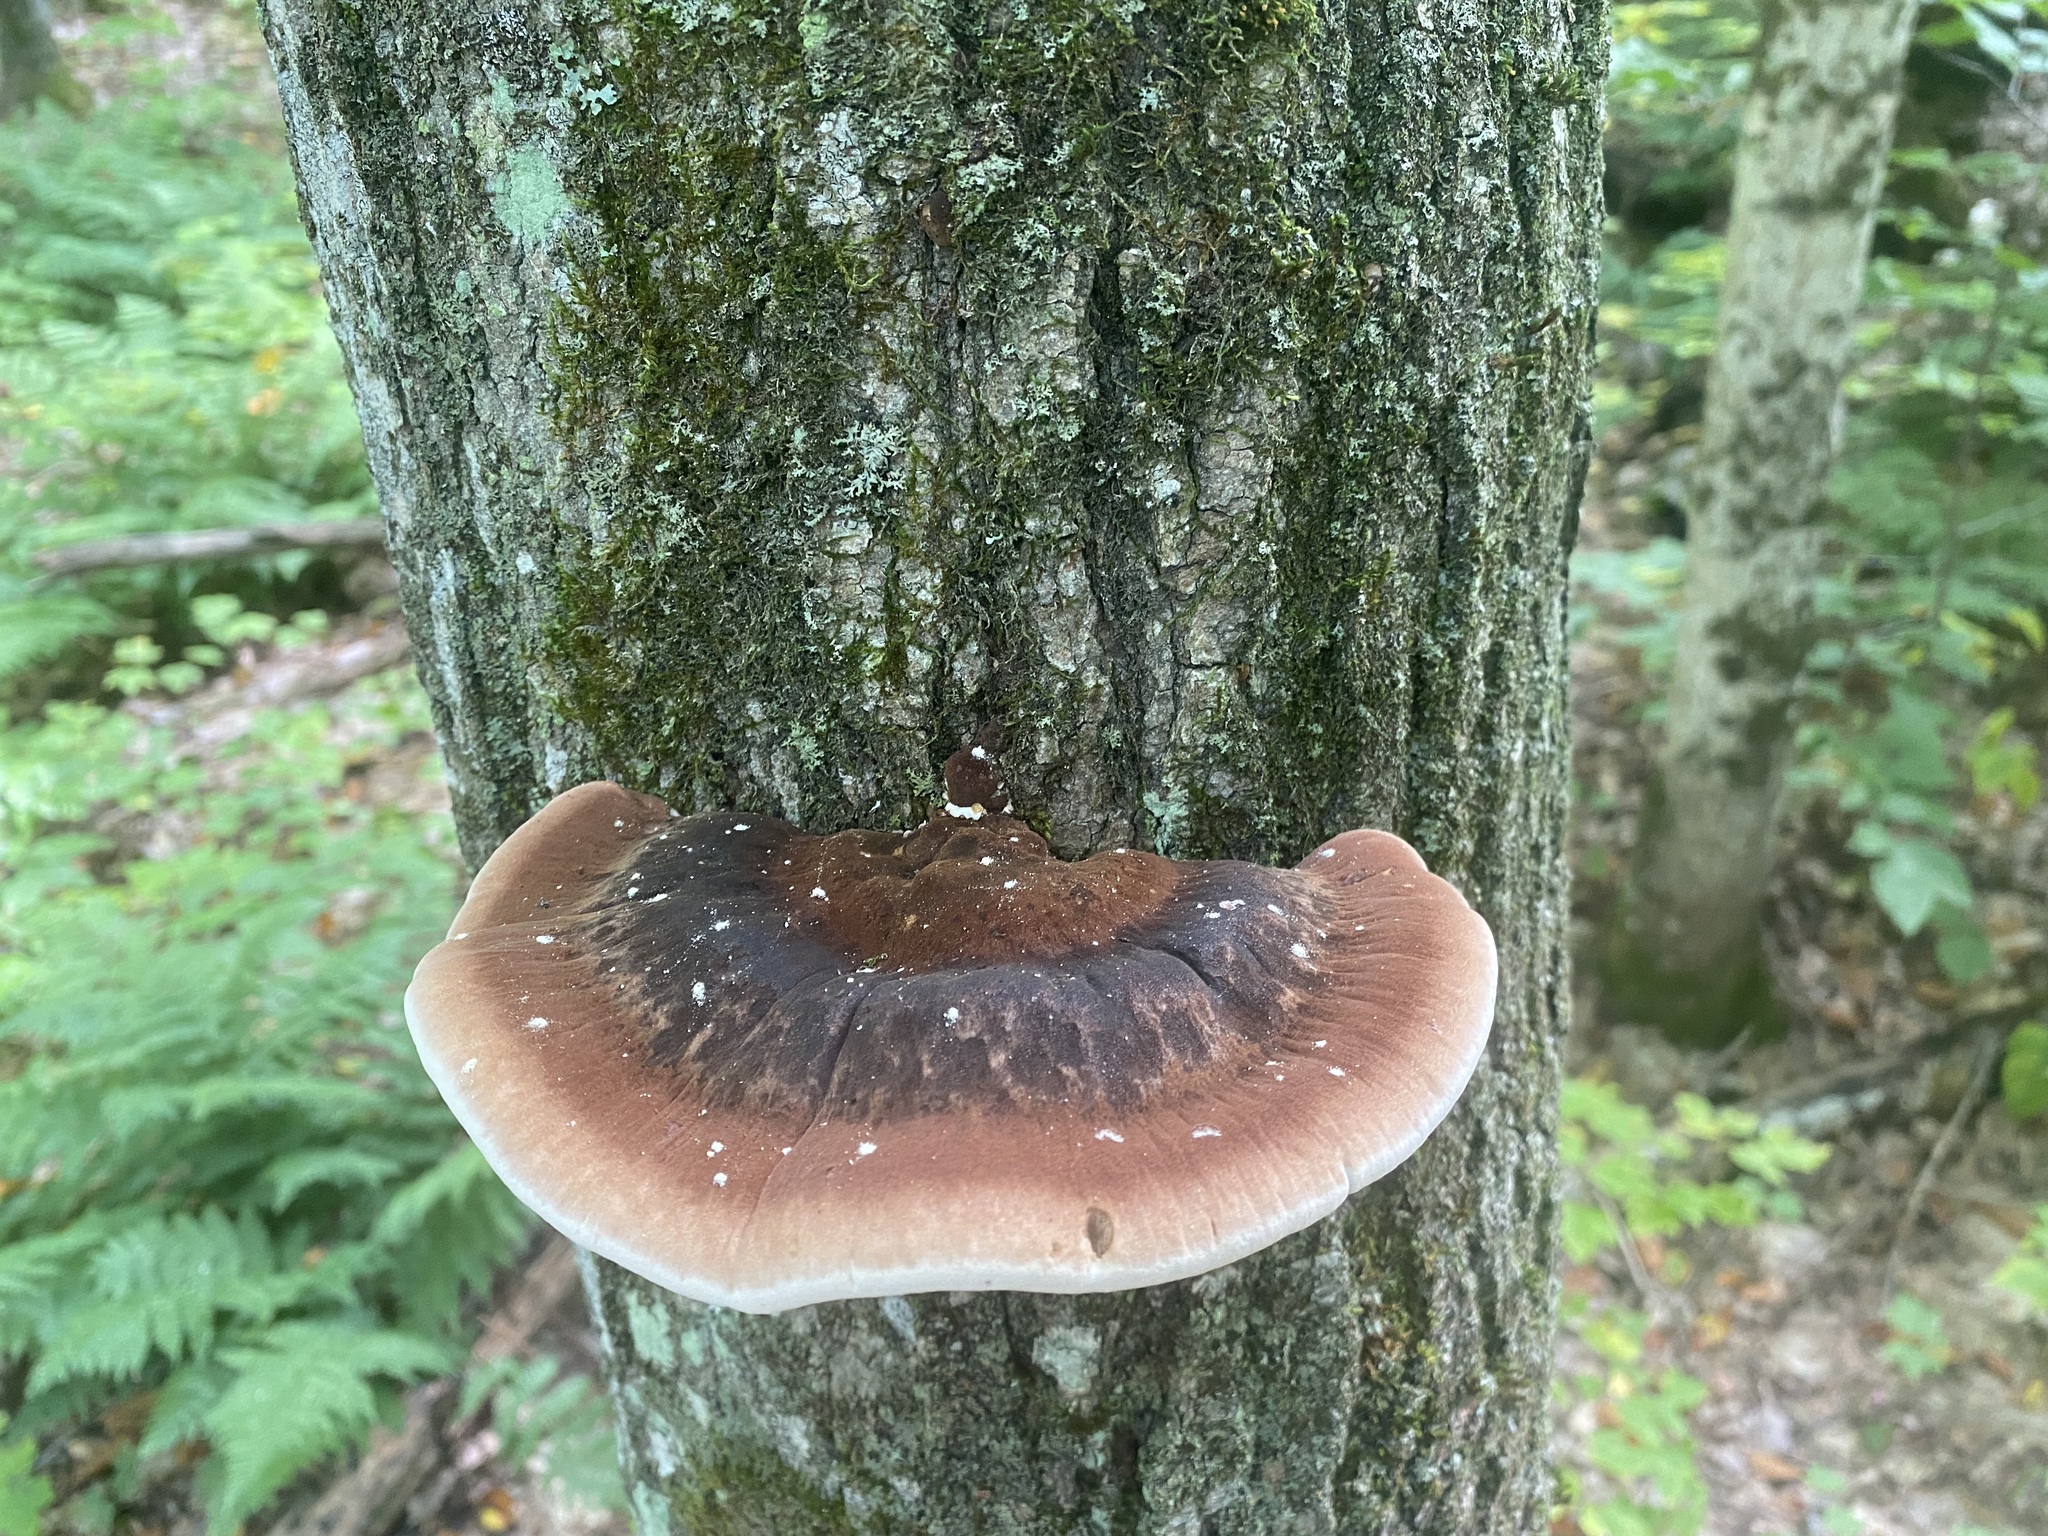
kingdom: Fungi
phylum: Basidiomycota
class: Agaricomycetes
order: Polyporales
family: Ischnodermataceae
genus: Ischnoderma
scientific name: Ischnoderma resinosum
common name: Resinous polypore
